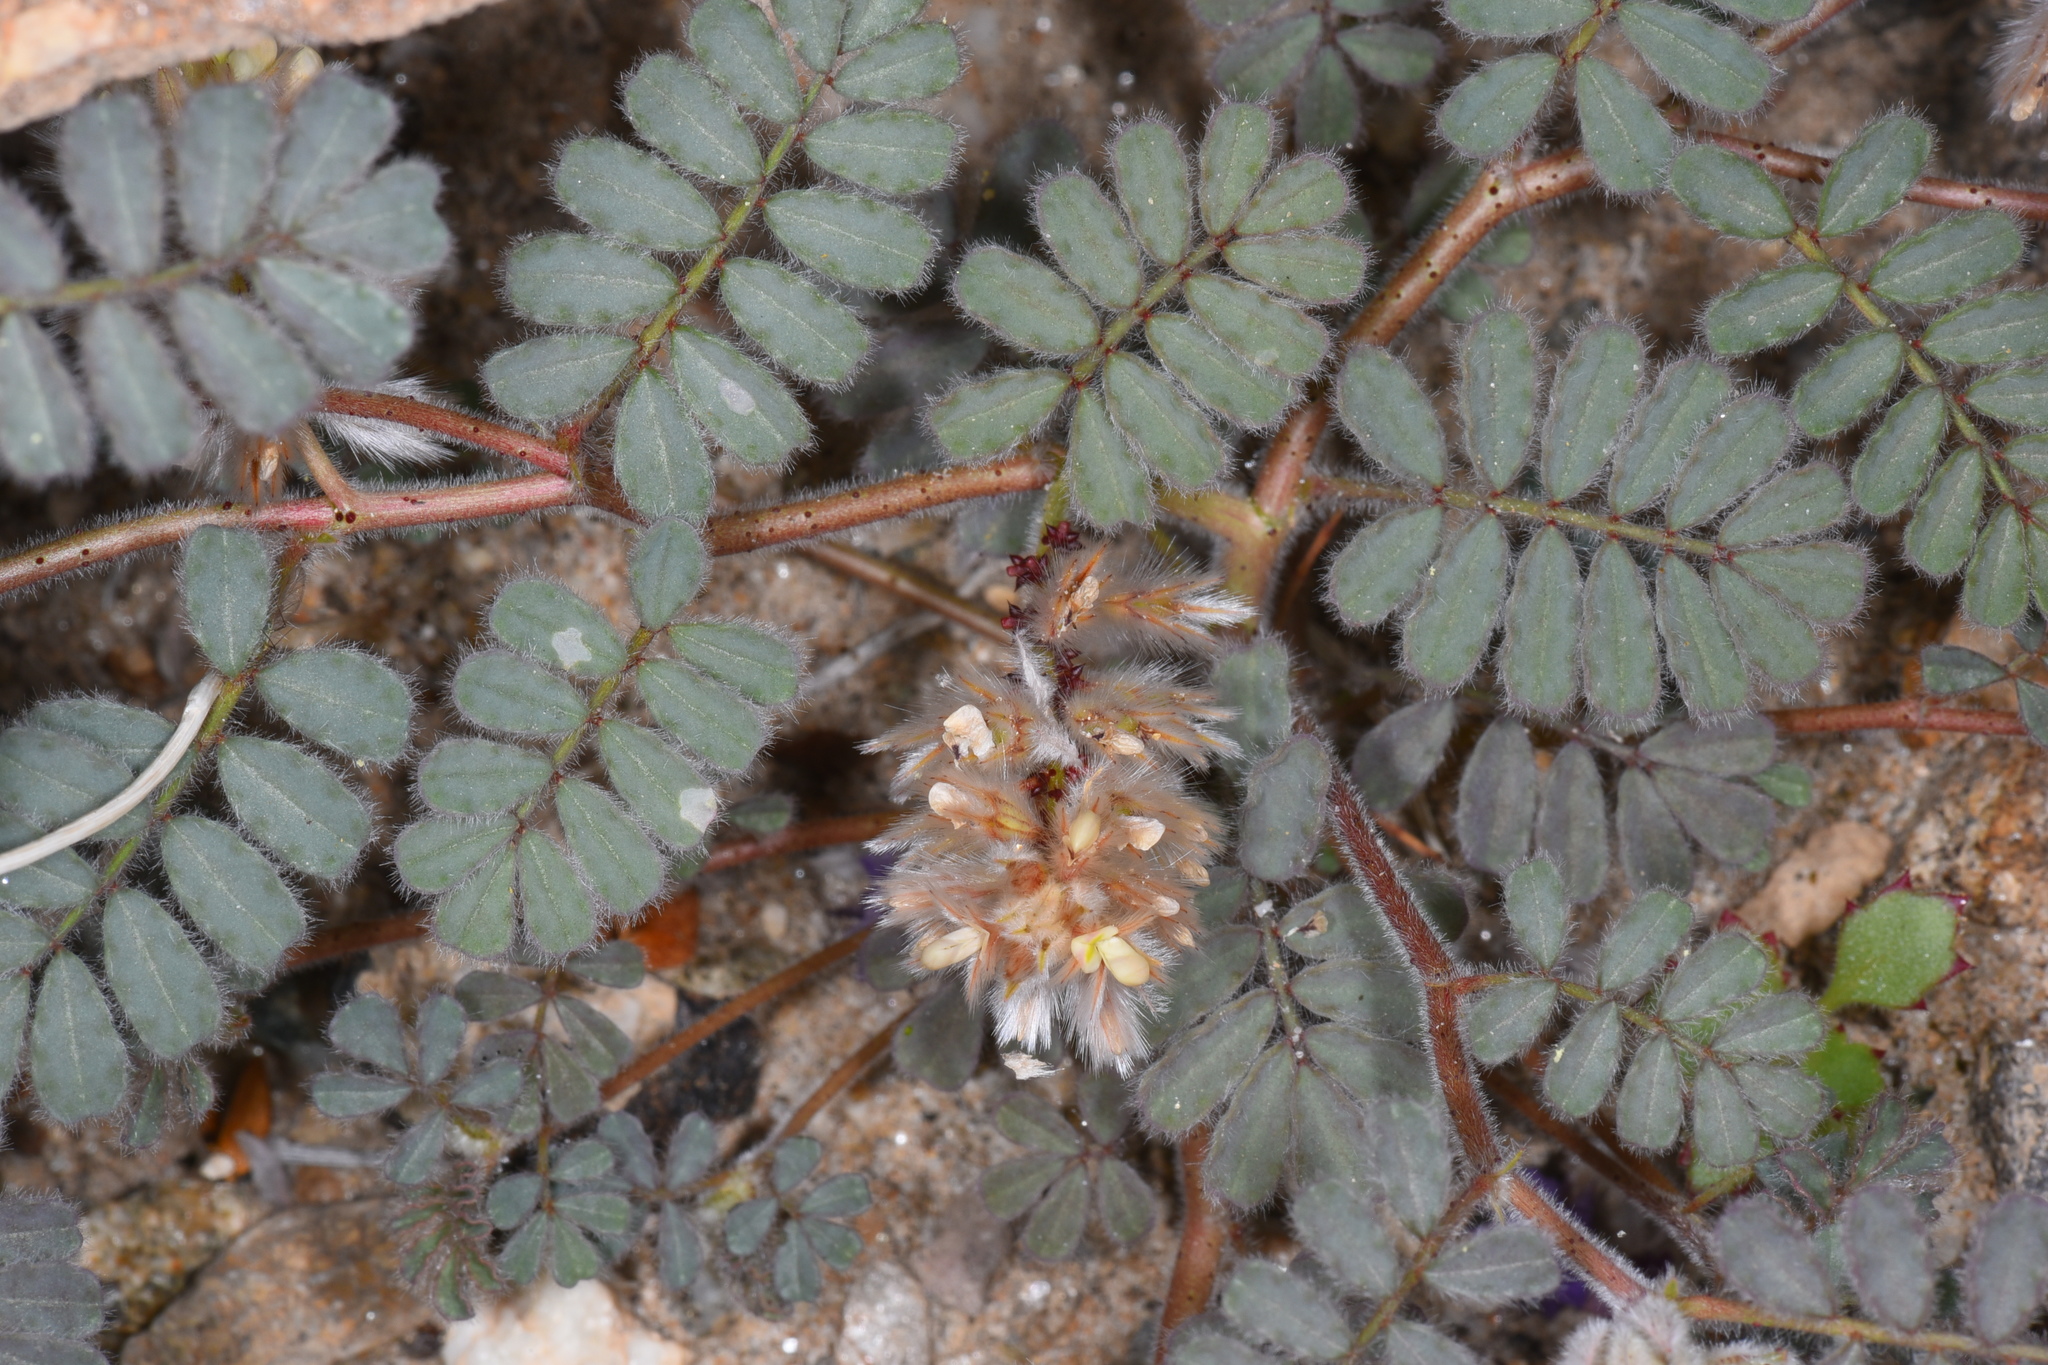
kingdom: Plantae
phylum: Tracheophyta
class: Magnoliopsida
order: Fabales
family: Fabaceae
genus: Dalea
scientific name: Dalea mollissima
